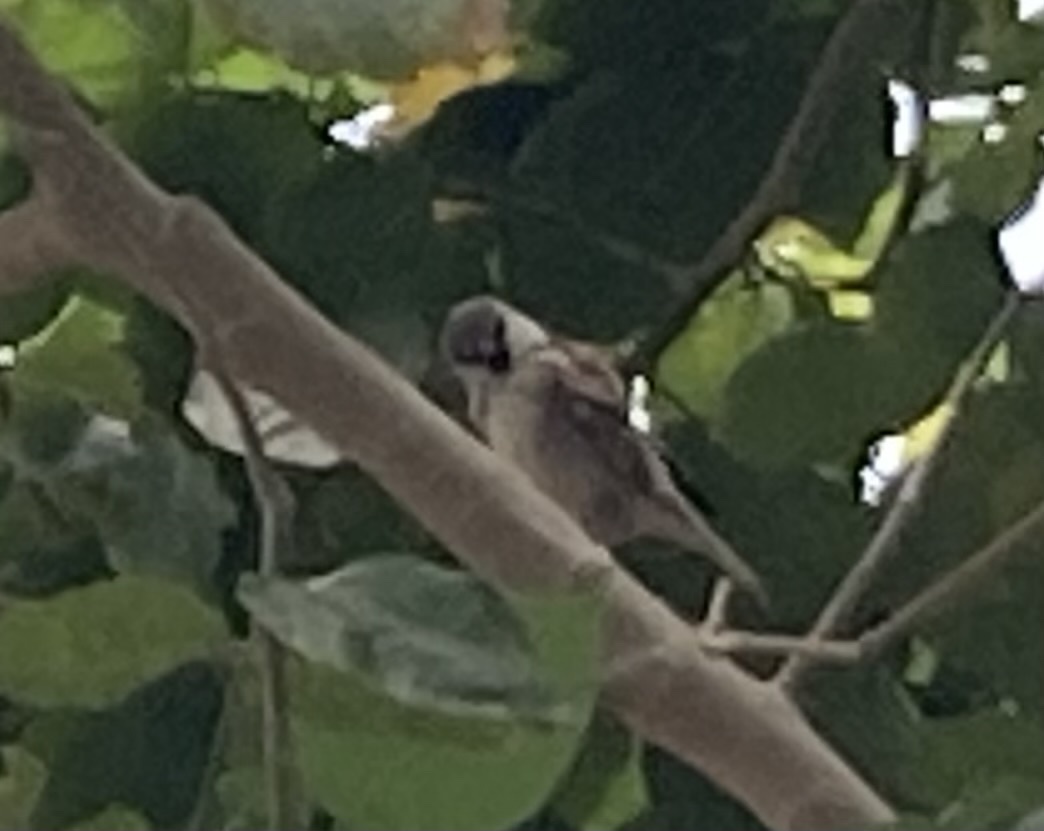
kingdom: Animalia
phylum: Chordata
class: Aves
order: Passeriformes
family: Passeridae
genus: Passer
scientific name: Passer domesticus
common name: House sparrow
